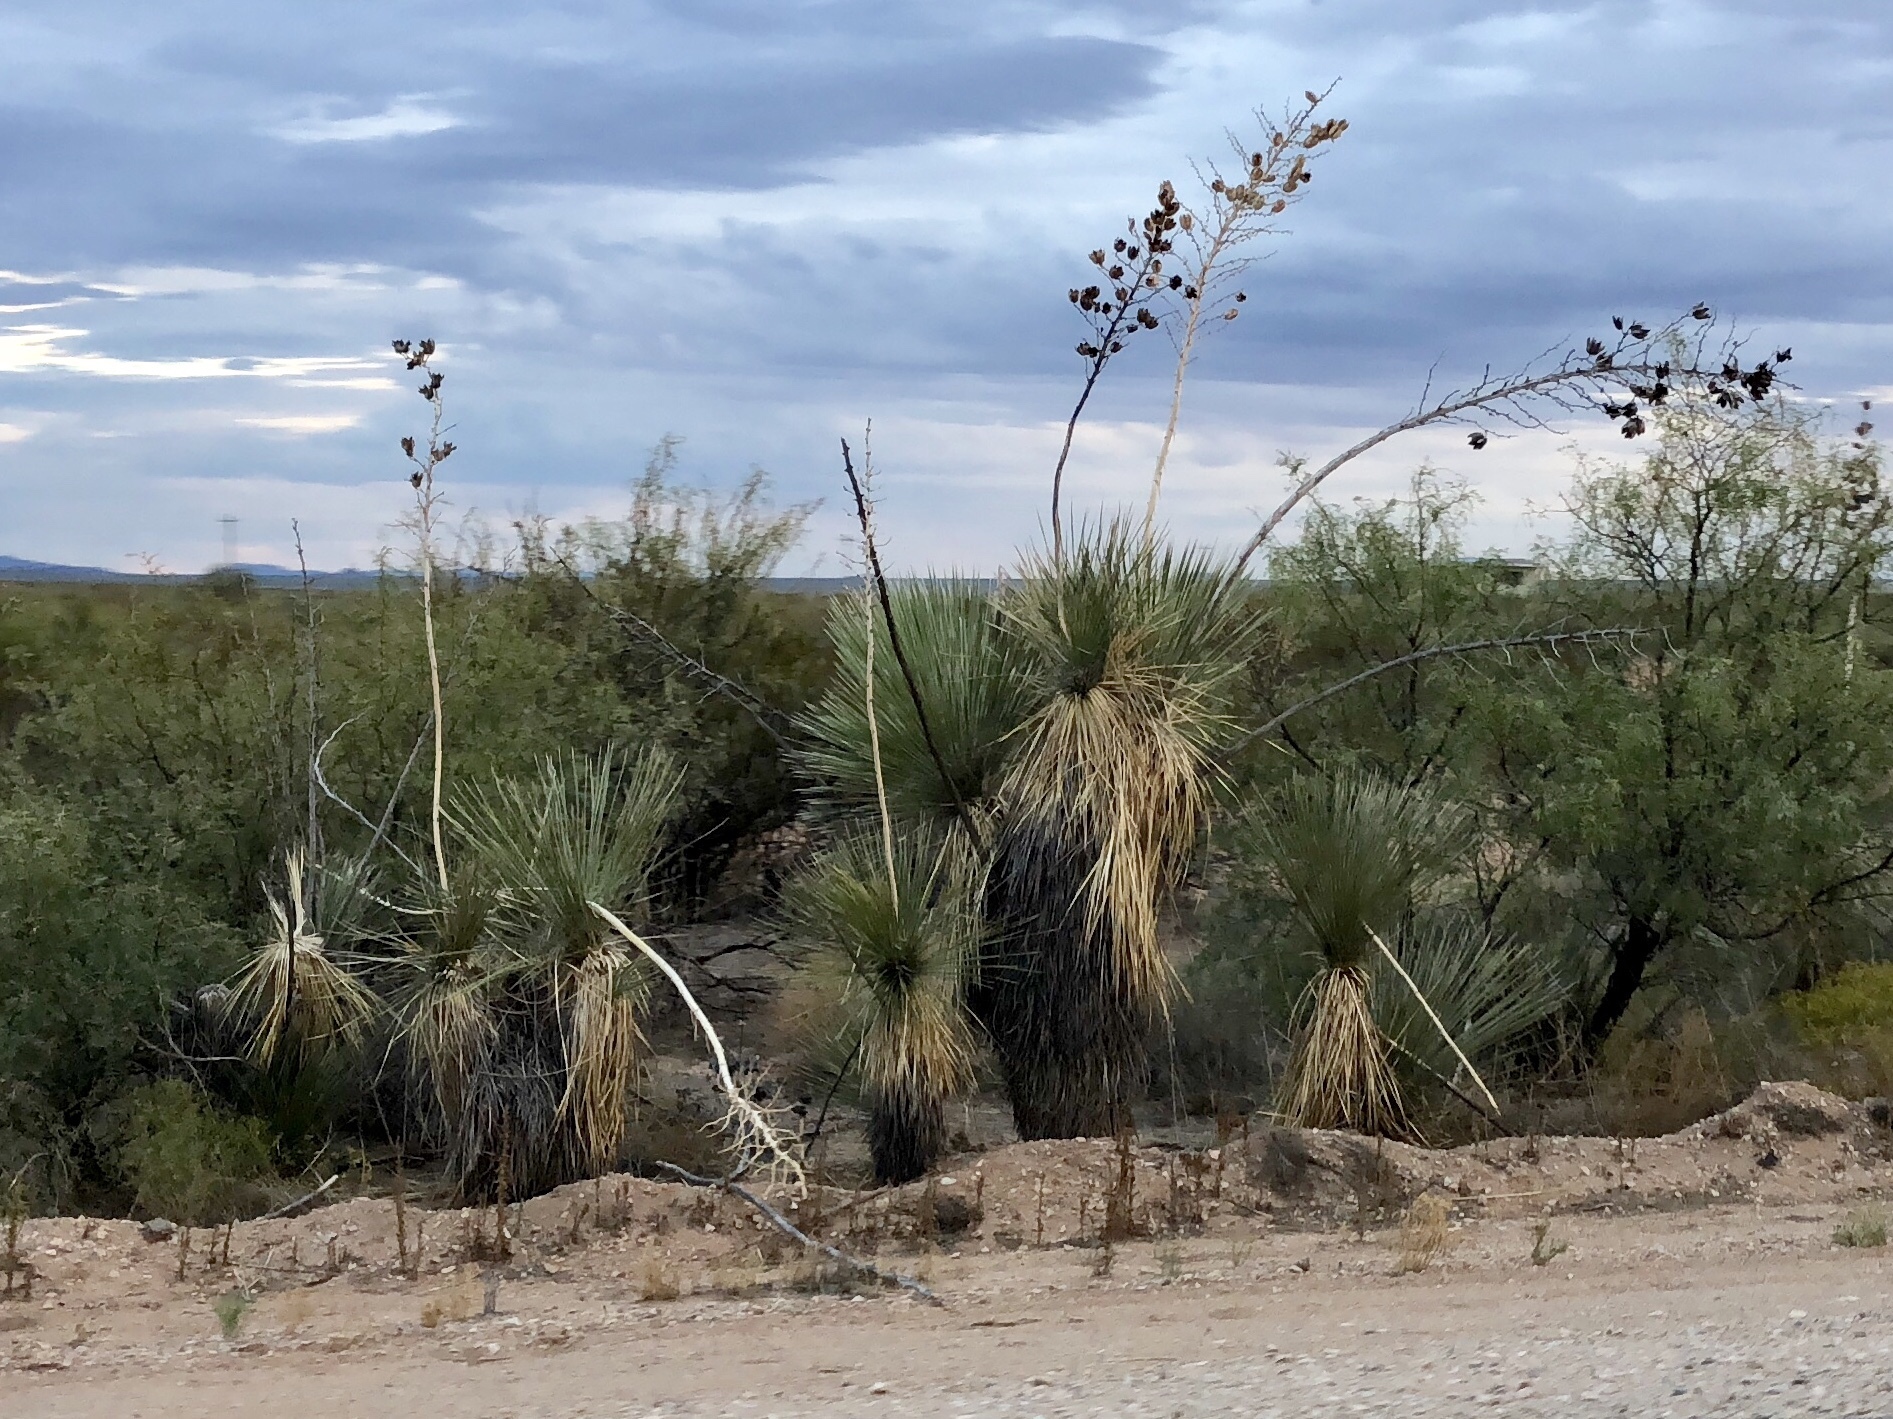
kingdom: Plantae
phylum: Tracheophyta
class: Liliopsida
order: Asparagales
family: Asparagaceae
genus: Yucca
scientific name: Yucca elata
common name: Palmella
